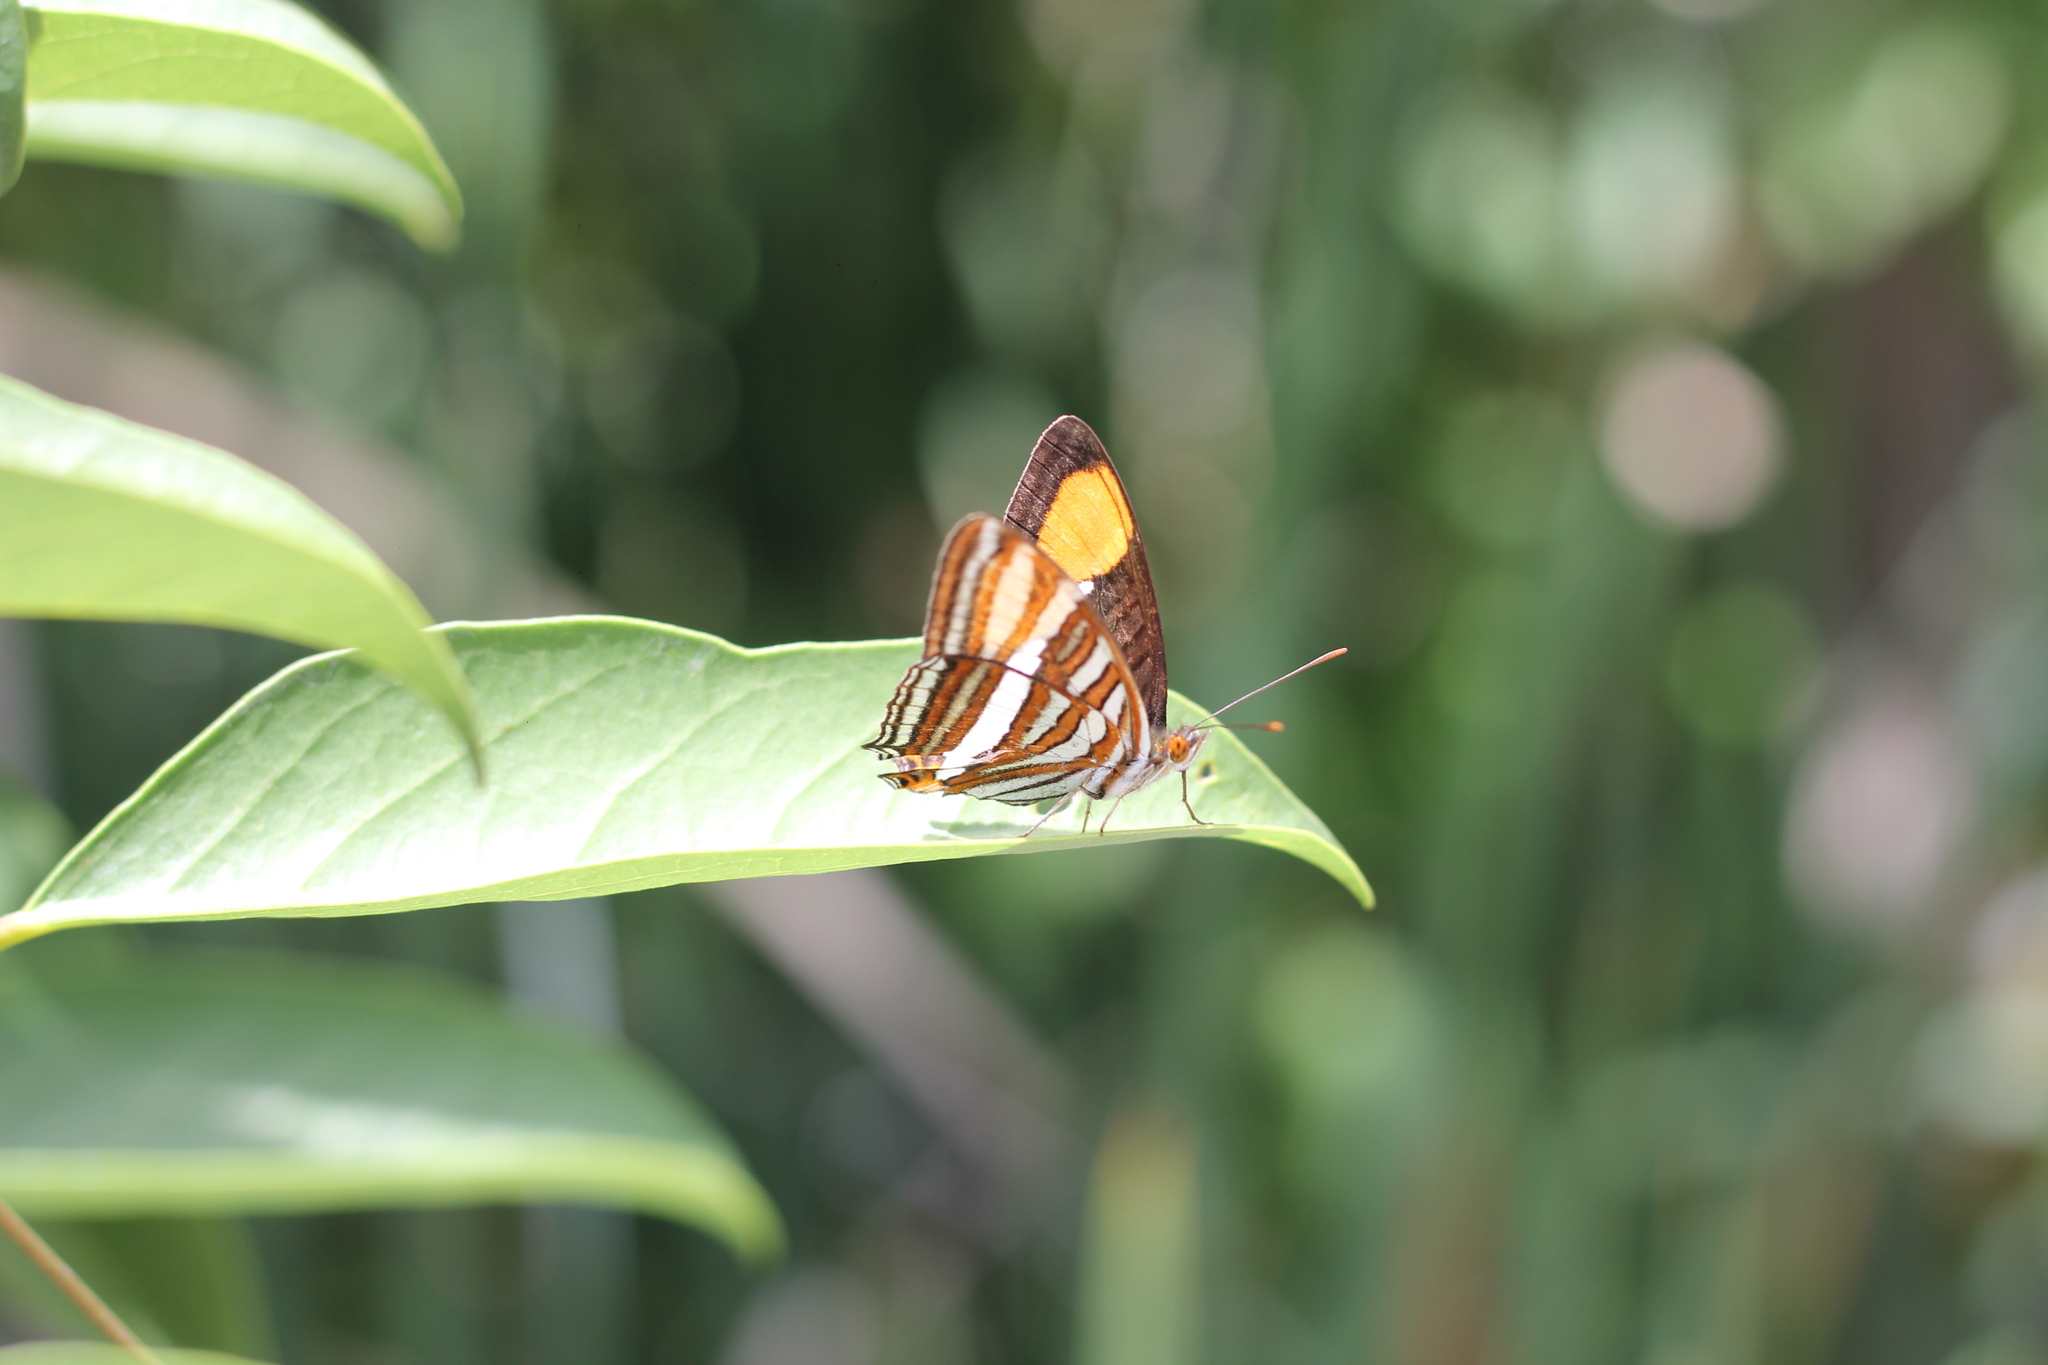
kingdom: Animalia
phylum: Arthropoda
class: Insecta
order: Lepidoptera
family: Nymphalidae
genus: Limenitis
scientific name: Limenitis syma
